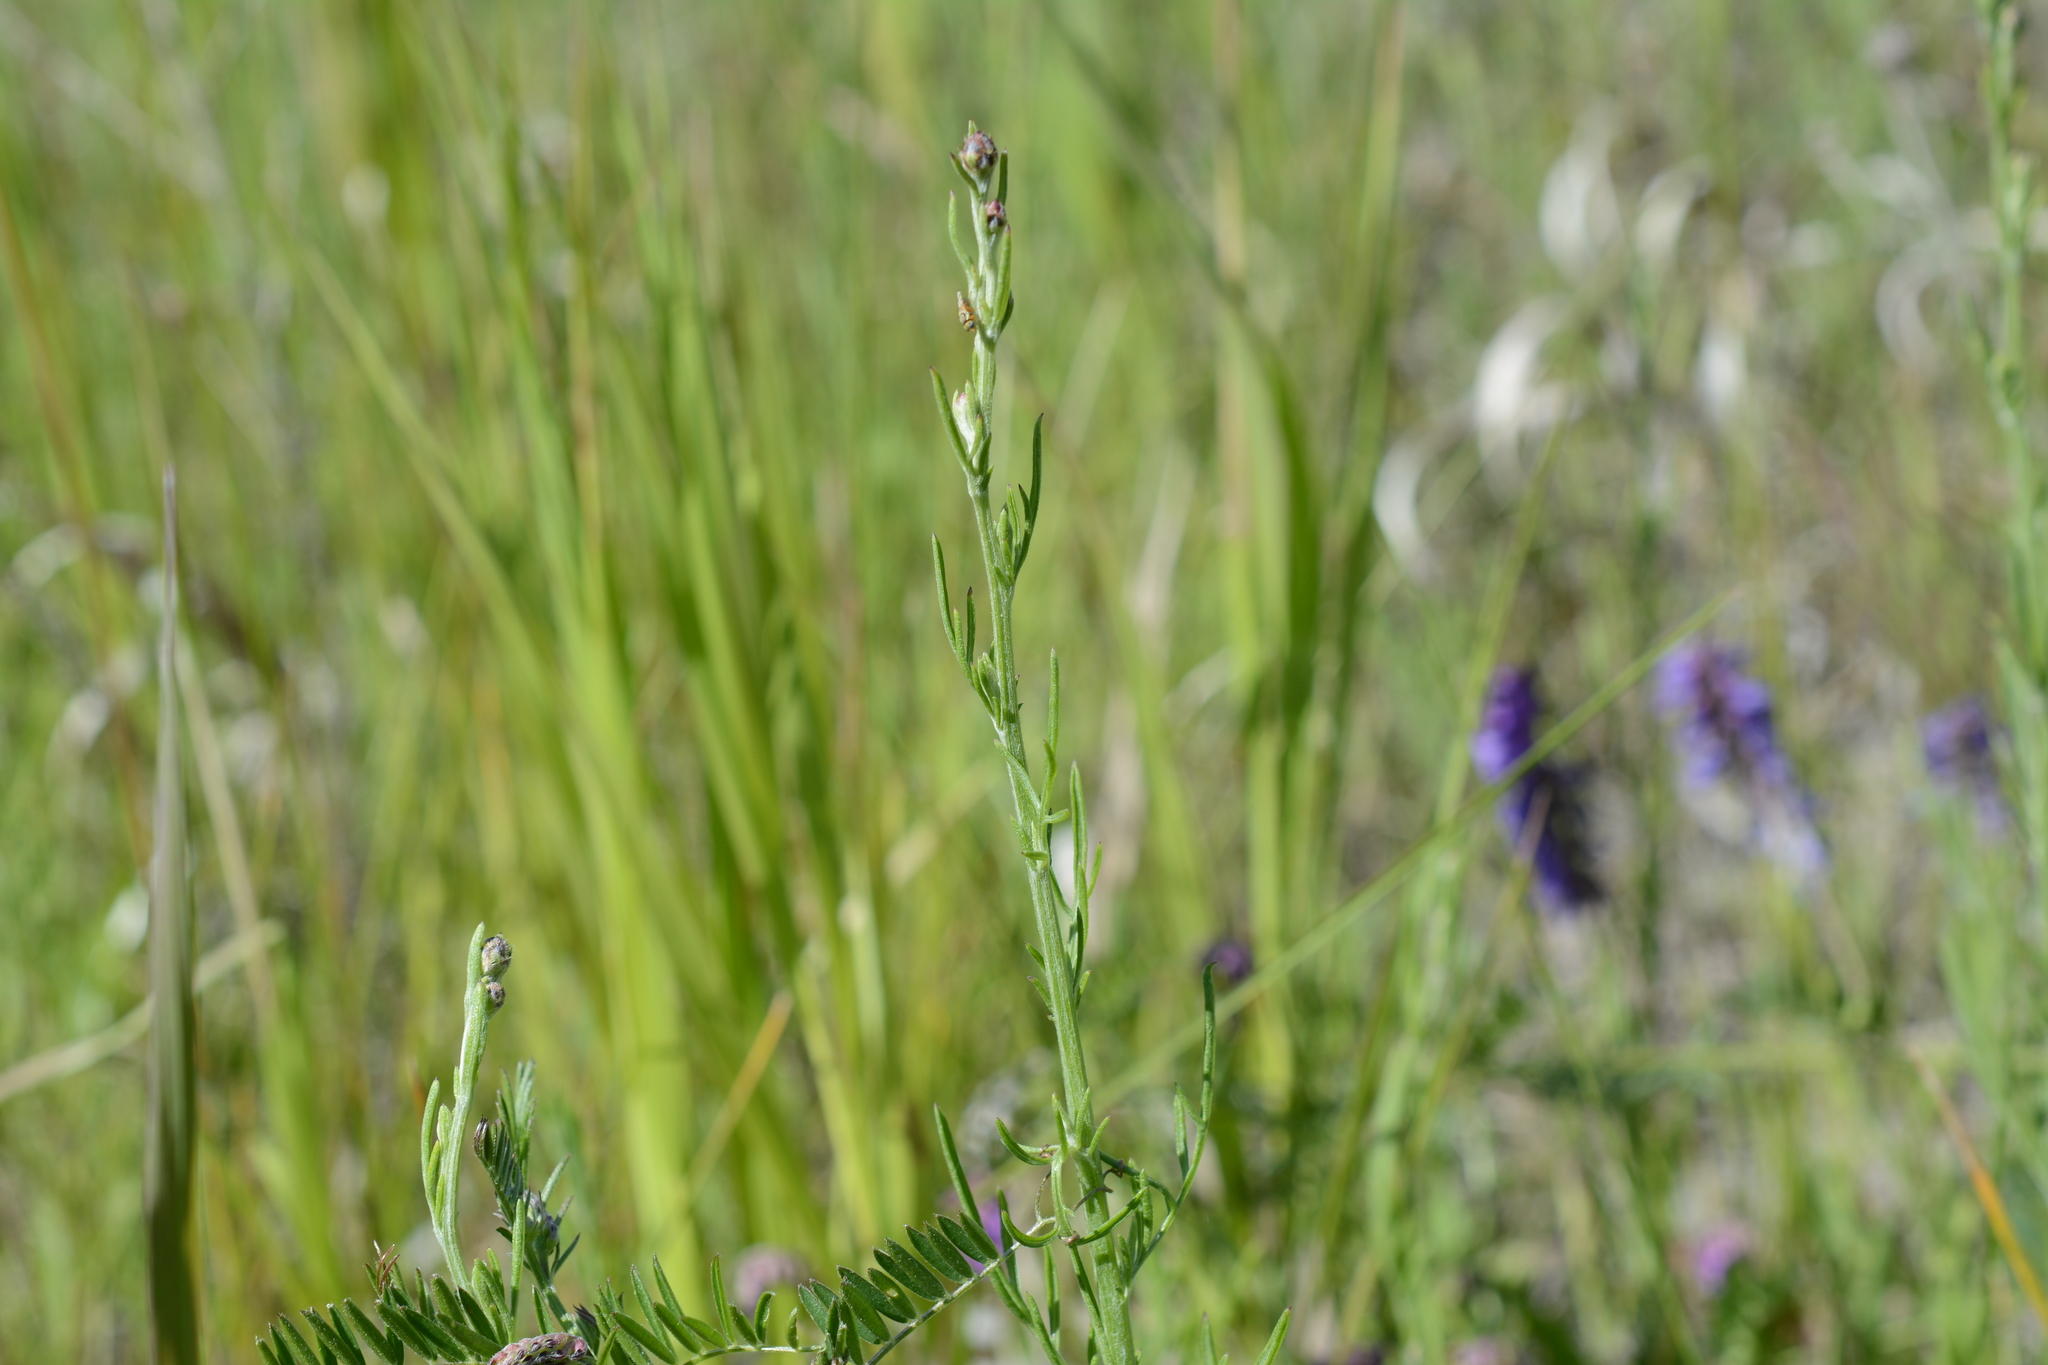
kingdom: Plantae
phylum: Tracheophyta
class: Magnoliopsida
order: Asterales
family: Asteraceae
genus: Centaurea
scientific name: Centaurea stoebe
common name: Spotted knapweed
